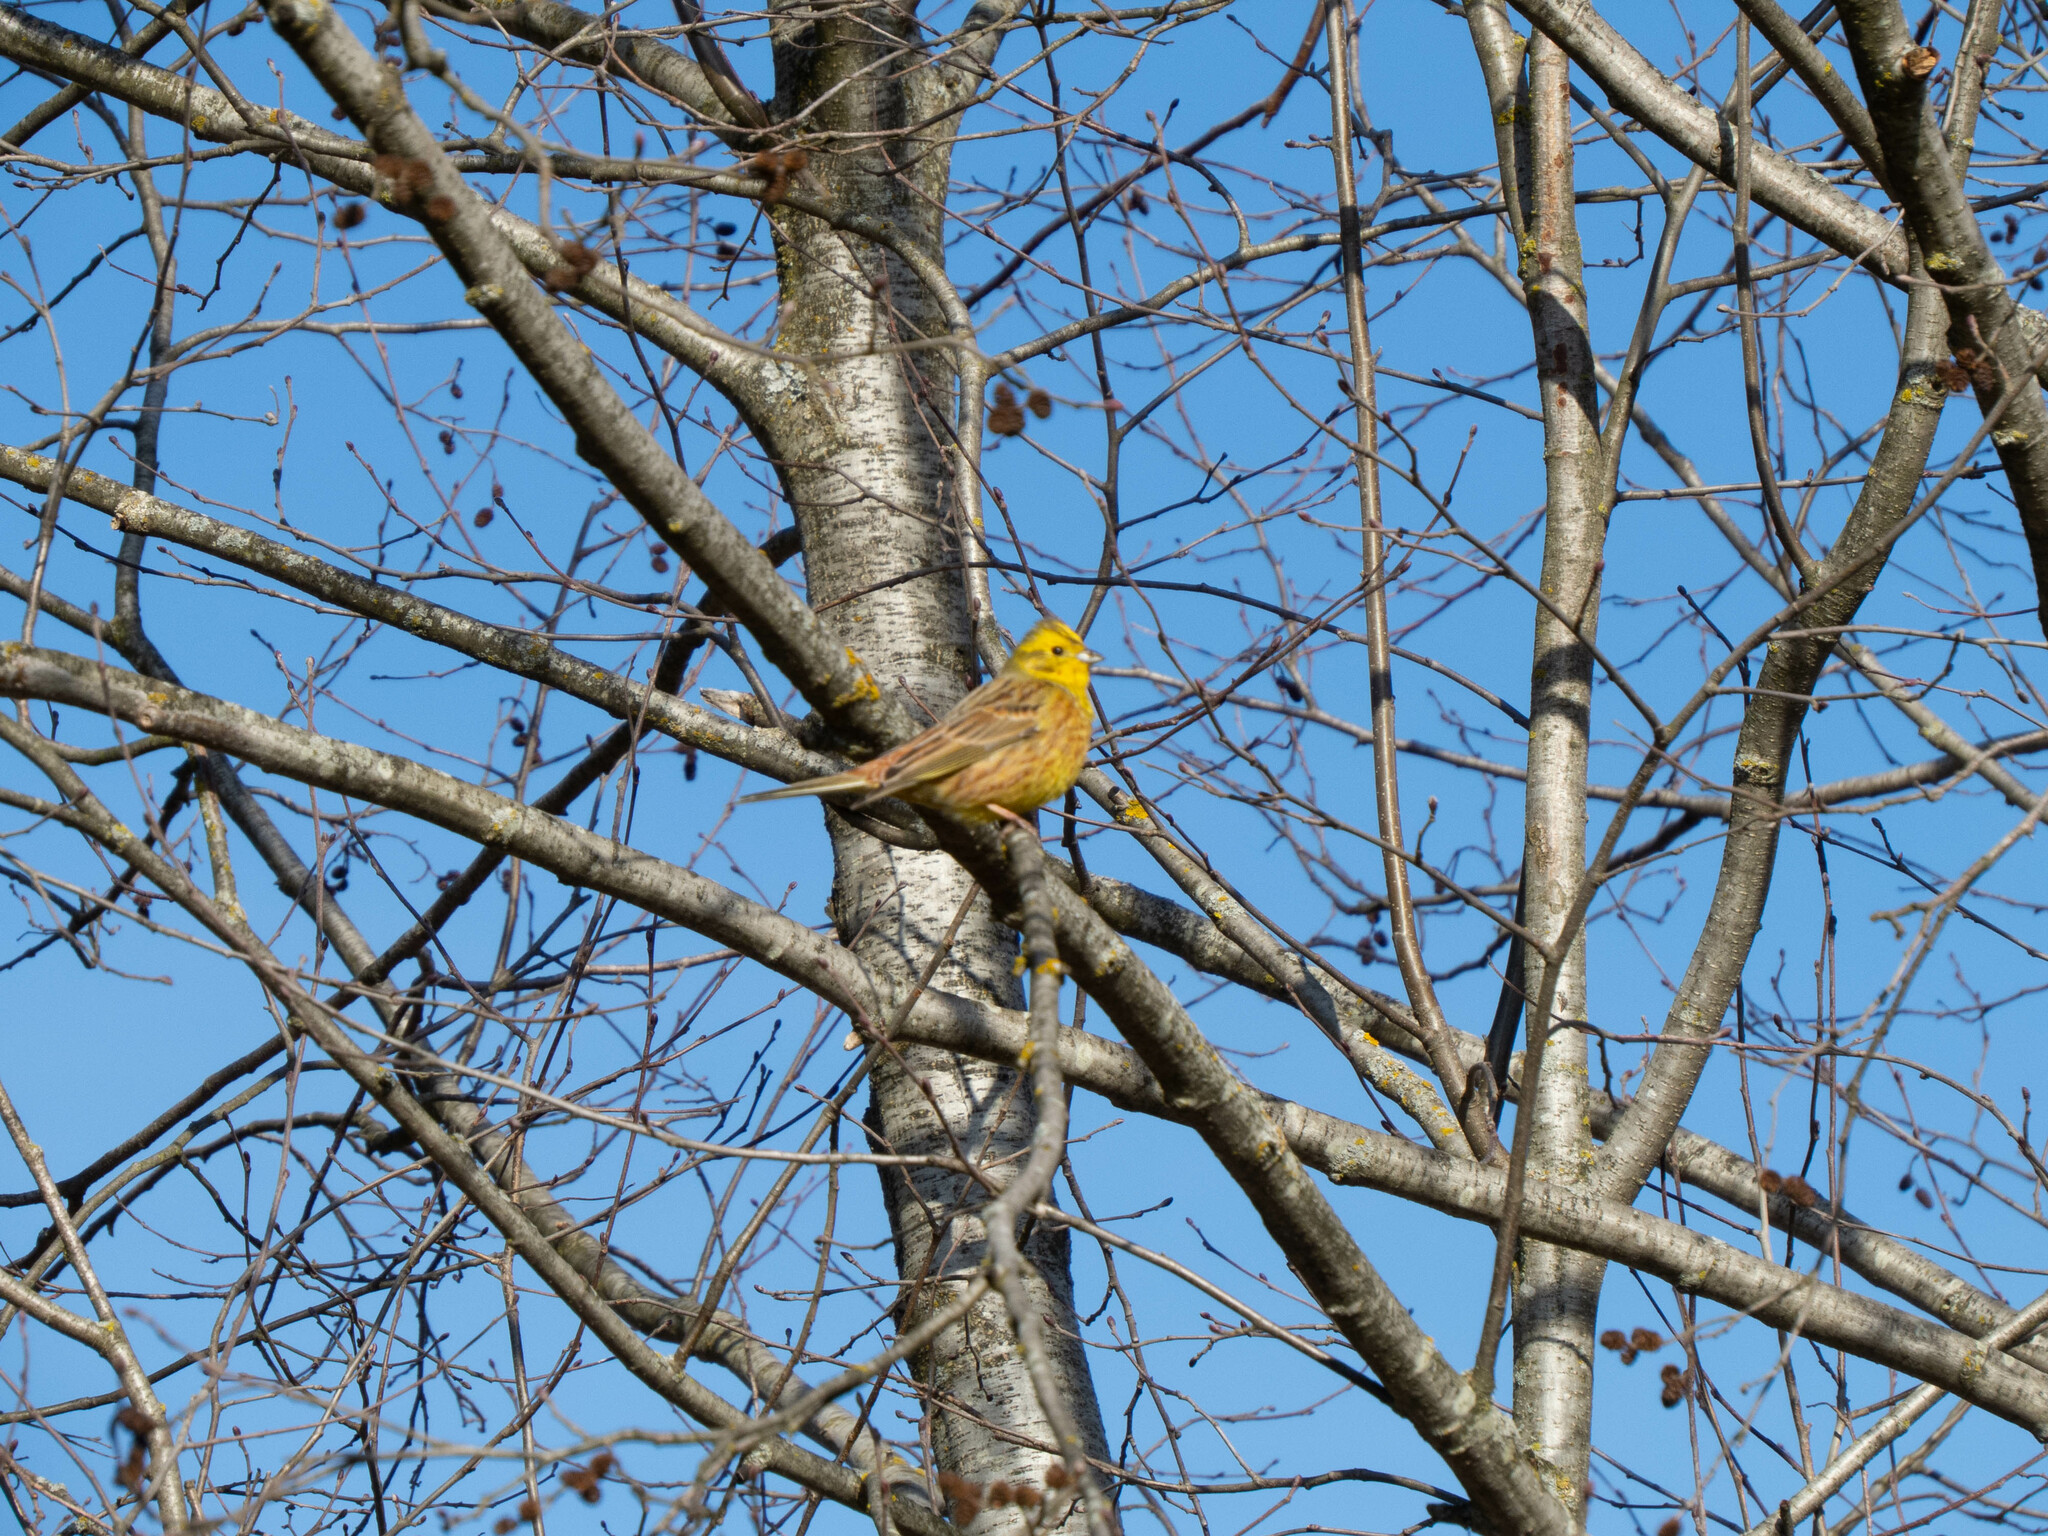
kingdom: Animalia
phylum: Chordata
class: Aves
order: Passeriformes
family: Emberizidae
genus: Emberiza
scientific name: Emberiza citrinella
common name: Yellowhammer
